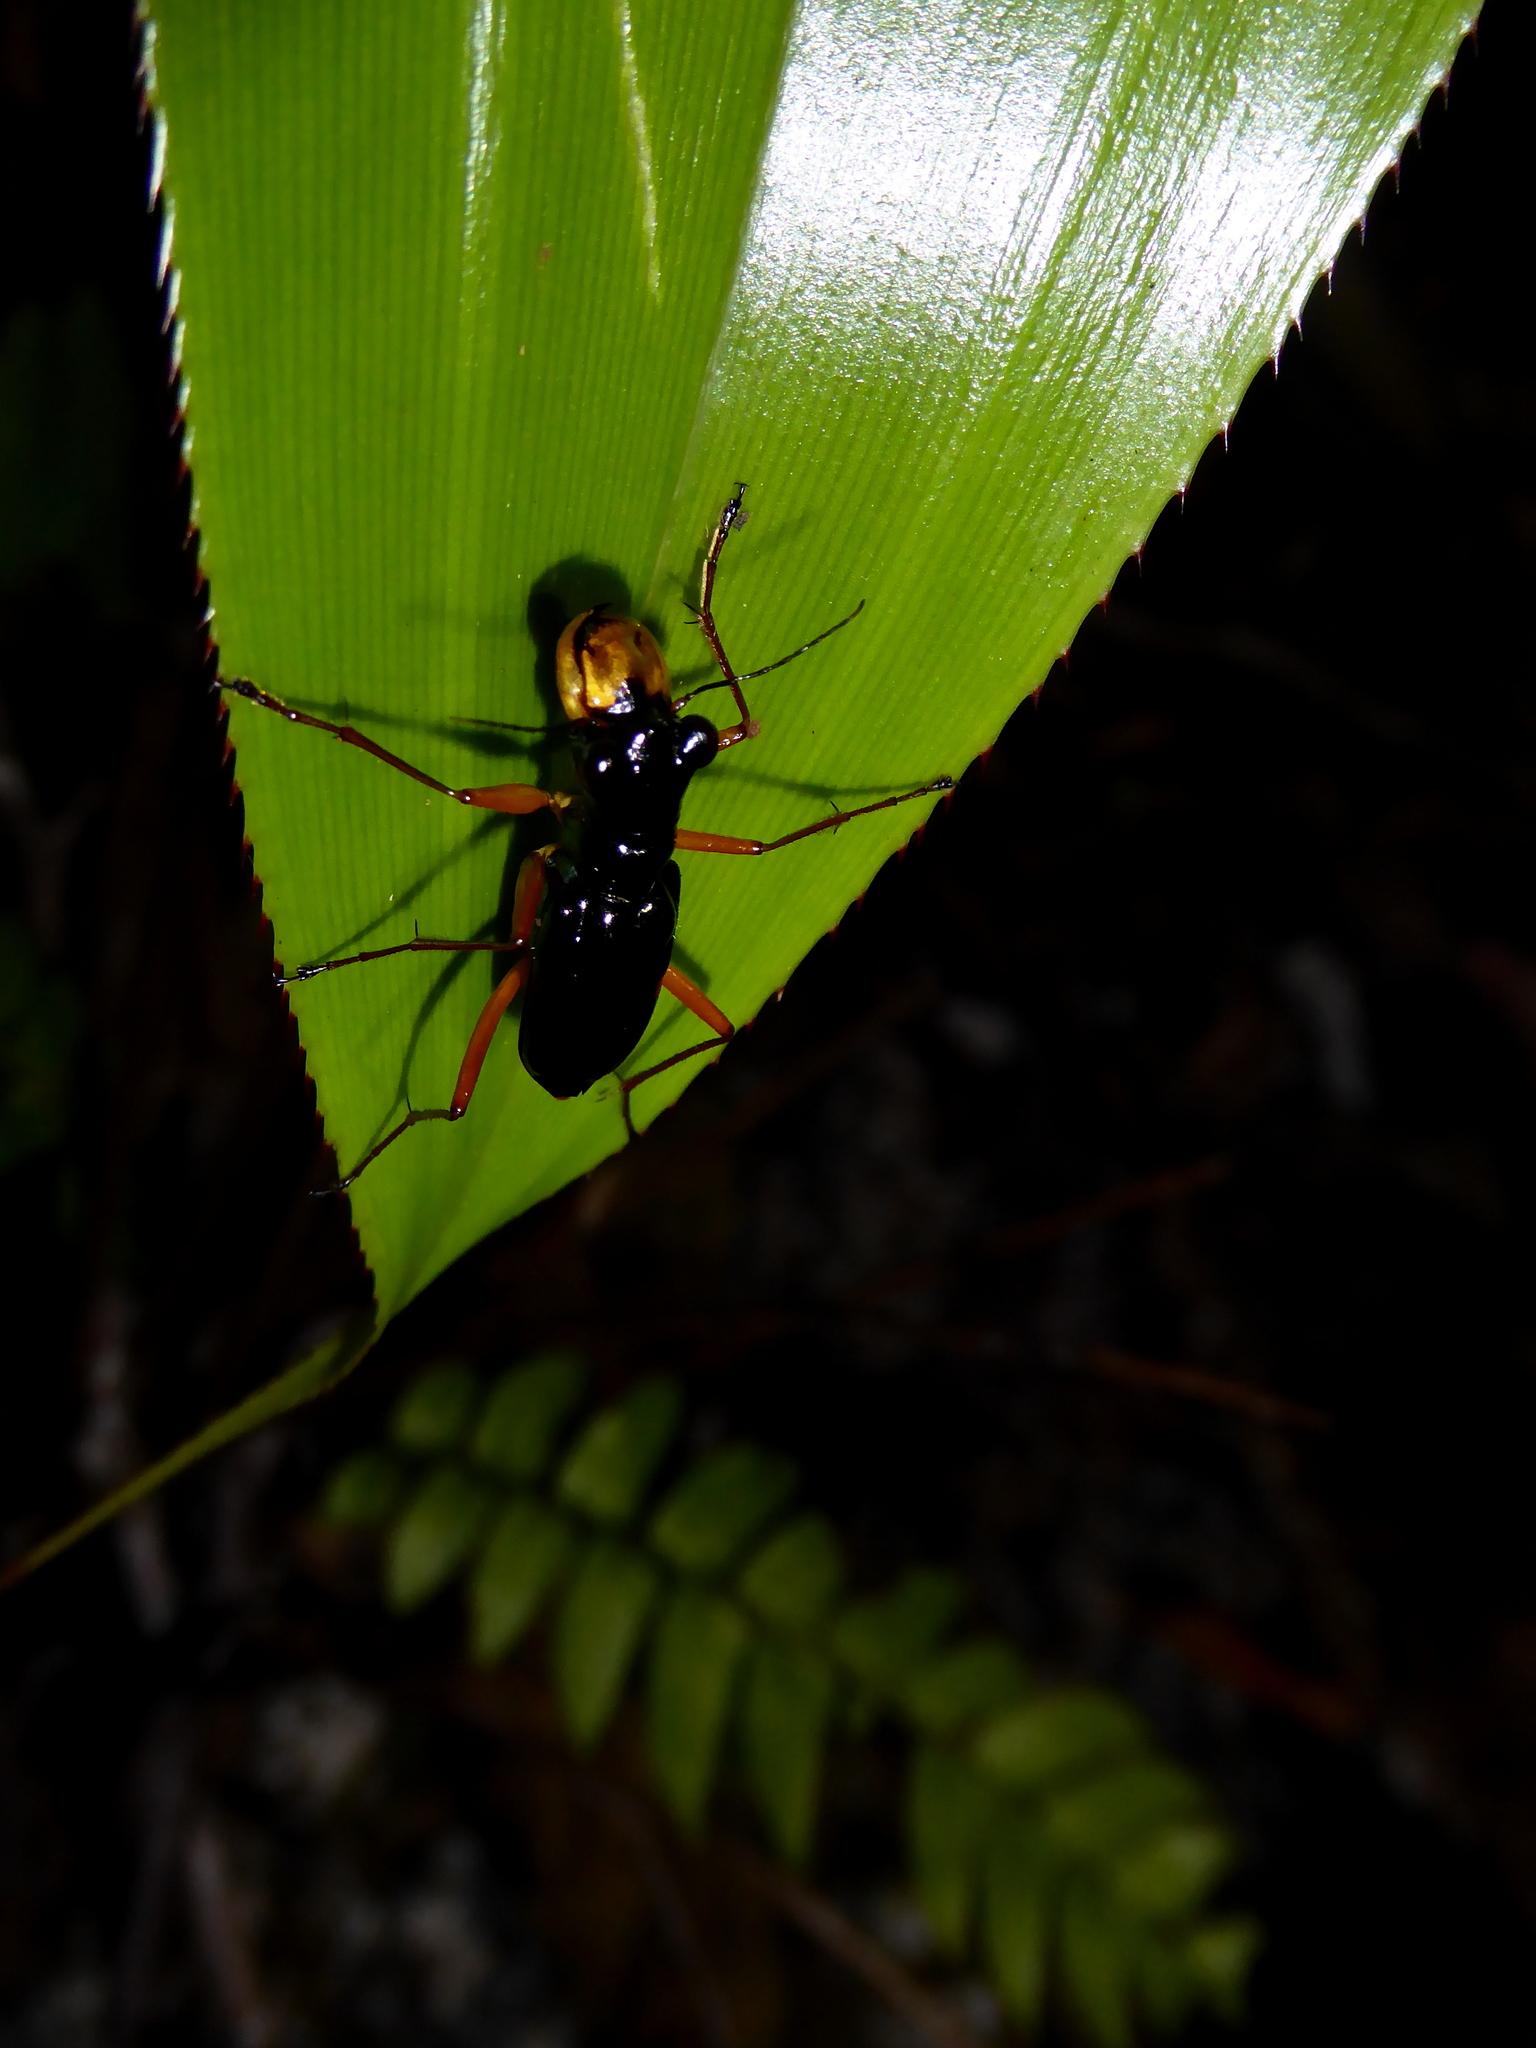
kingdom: Animalia
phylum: Arthropoda
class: Insecta
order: Coleoptera
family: Carabidae
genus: Therates
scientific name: Therates labiatus
